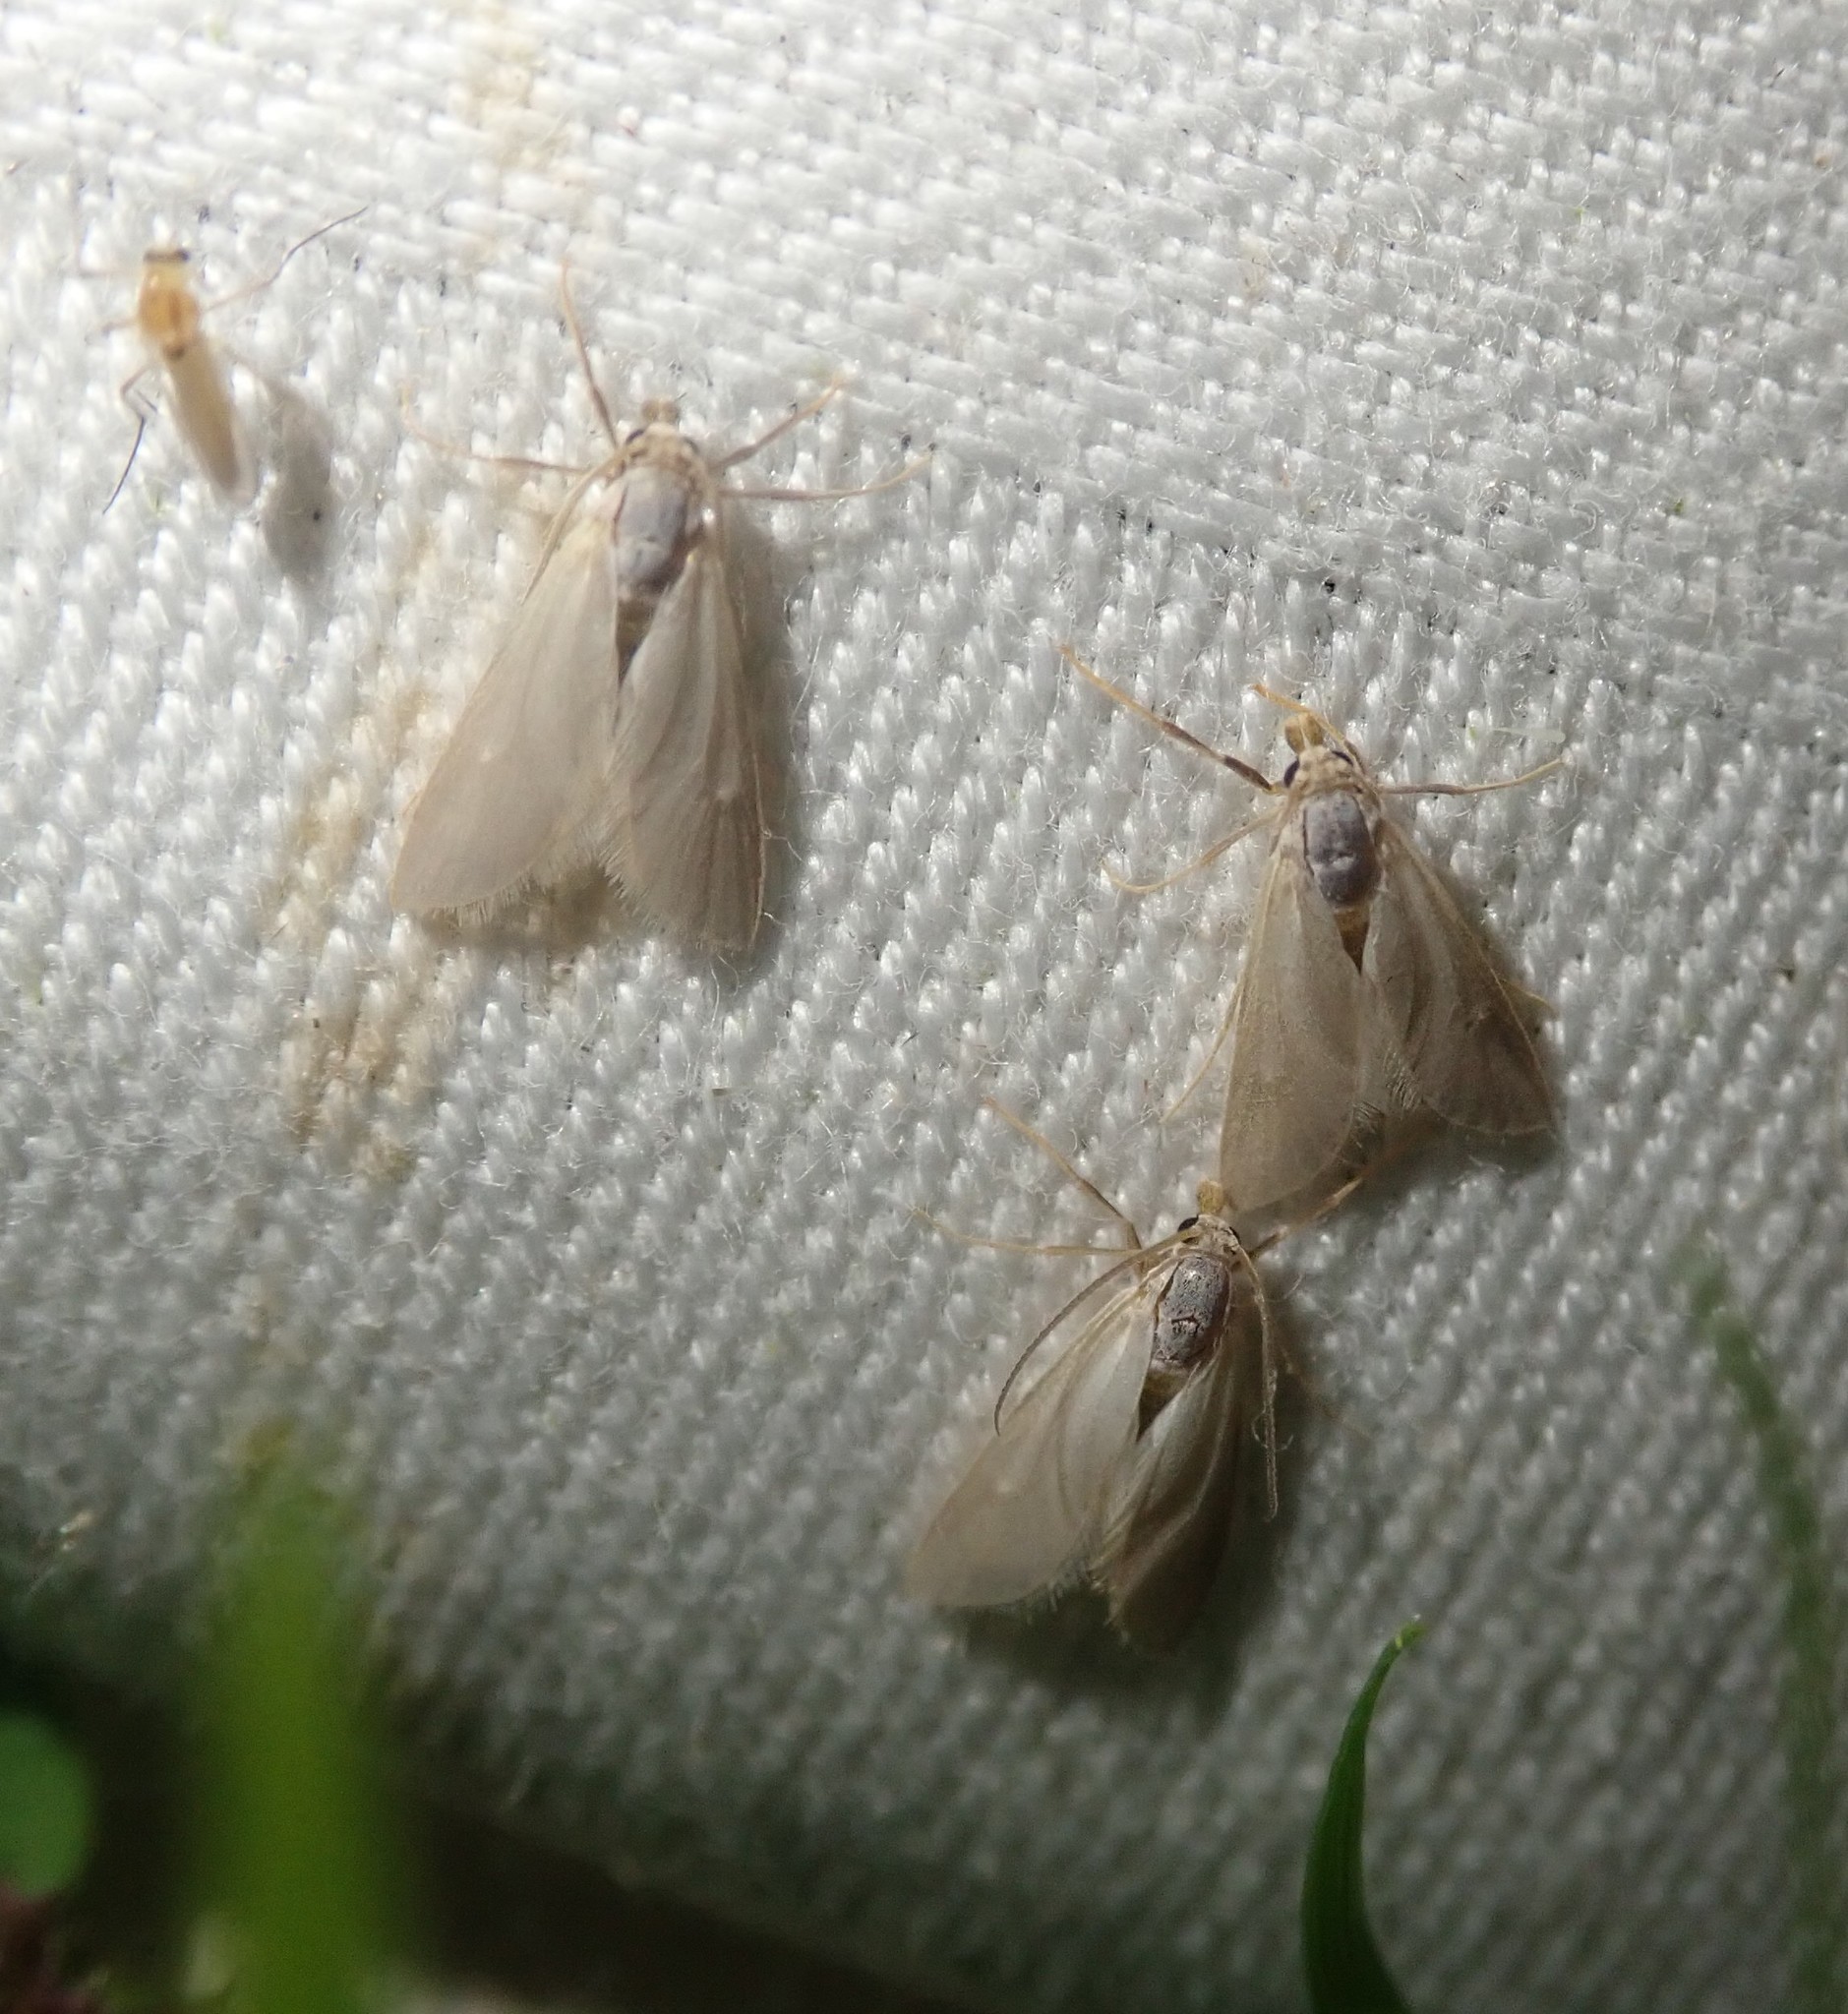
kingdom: Animalia
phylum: Arthropoda
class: Insecta
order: Lepidoptera
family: Crambidae
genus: Acentria
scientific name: Acentria ephemerella
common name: European water moth
